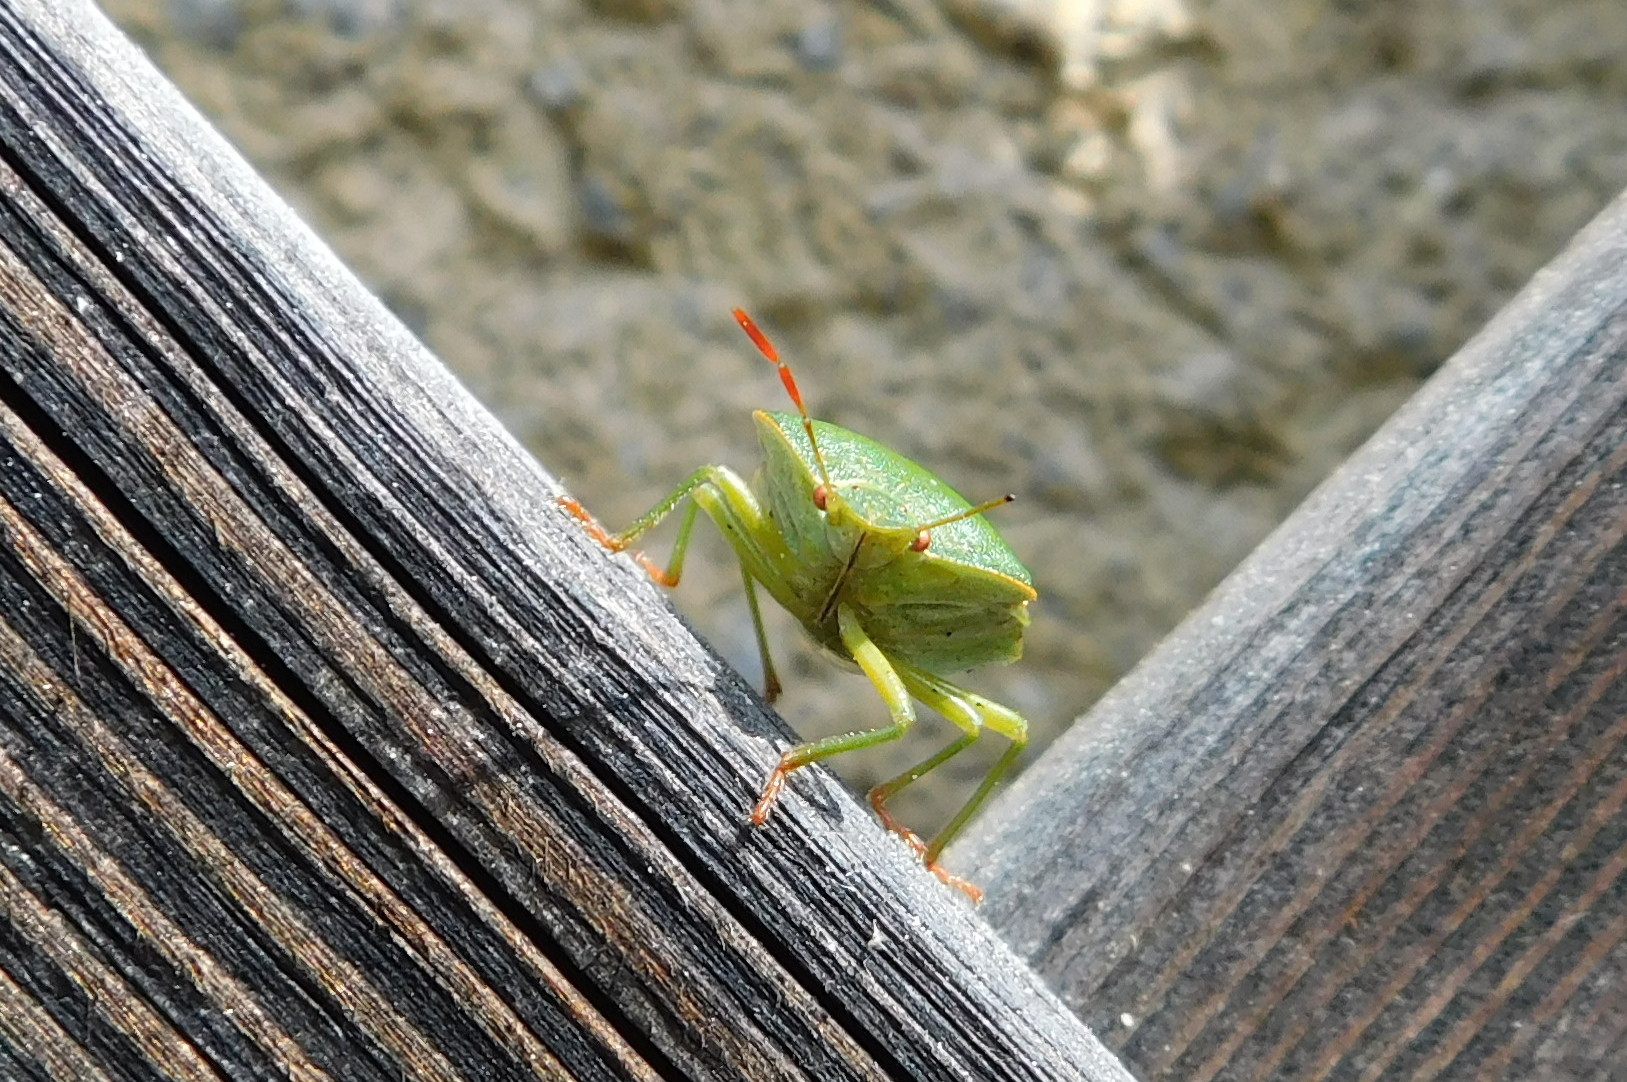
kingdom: Animalia
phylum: Arthropoda
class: Insecta
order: Hemiptera
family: Pentatomidae
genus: Palomena
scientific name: Palomena prasina
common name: Green shieldbug
